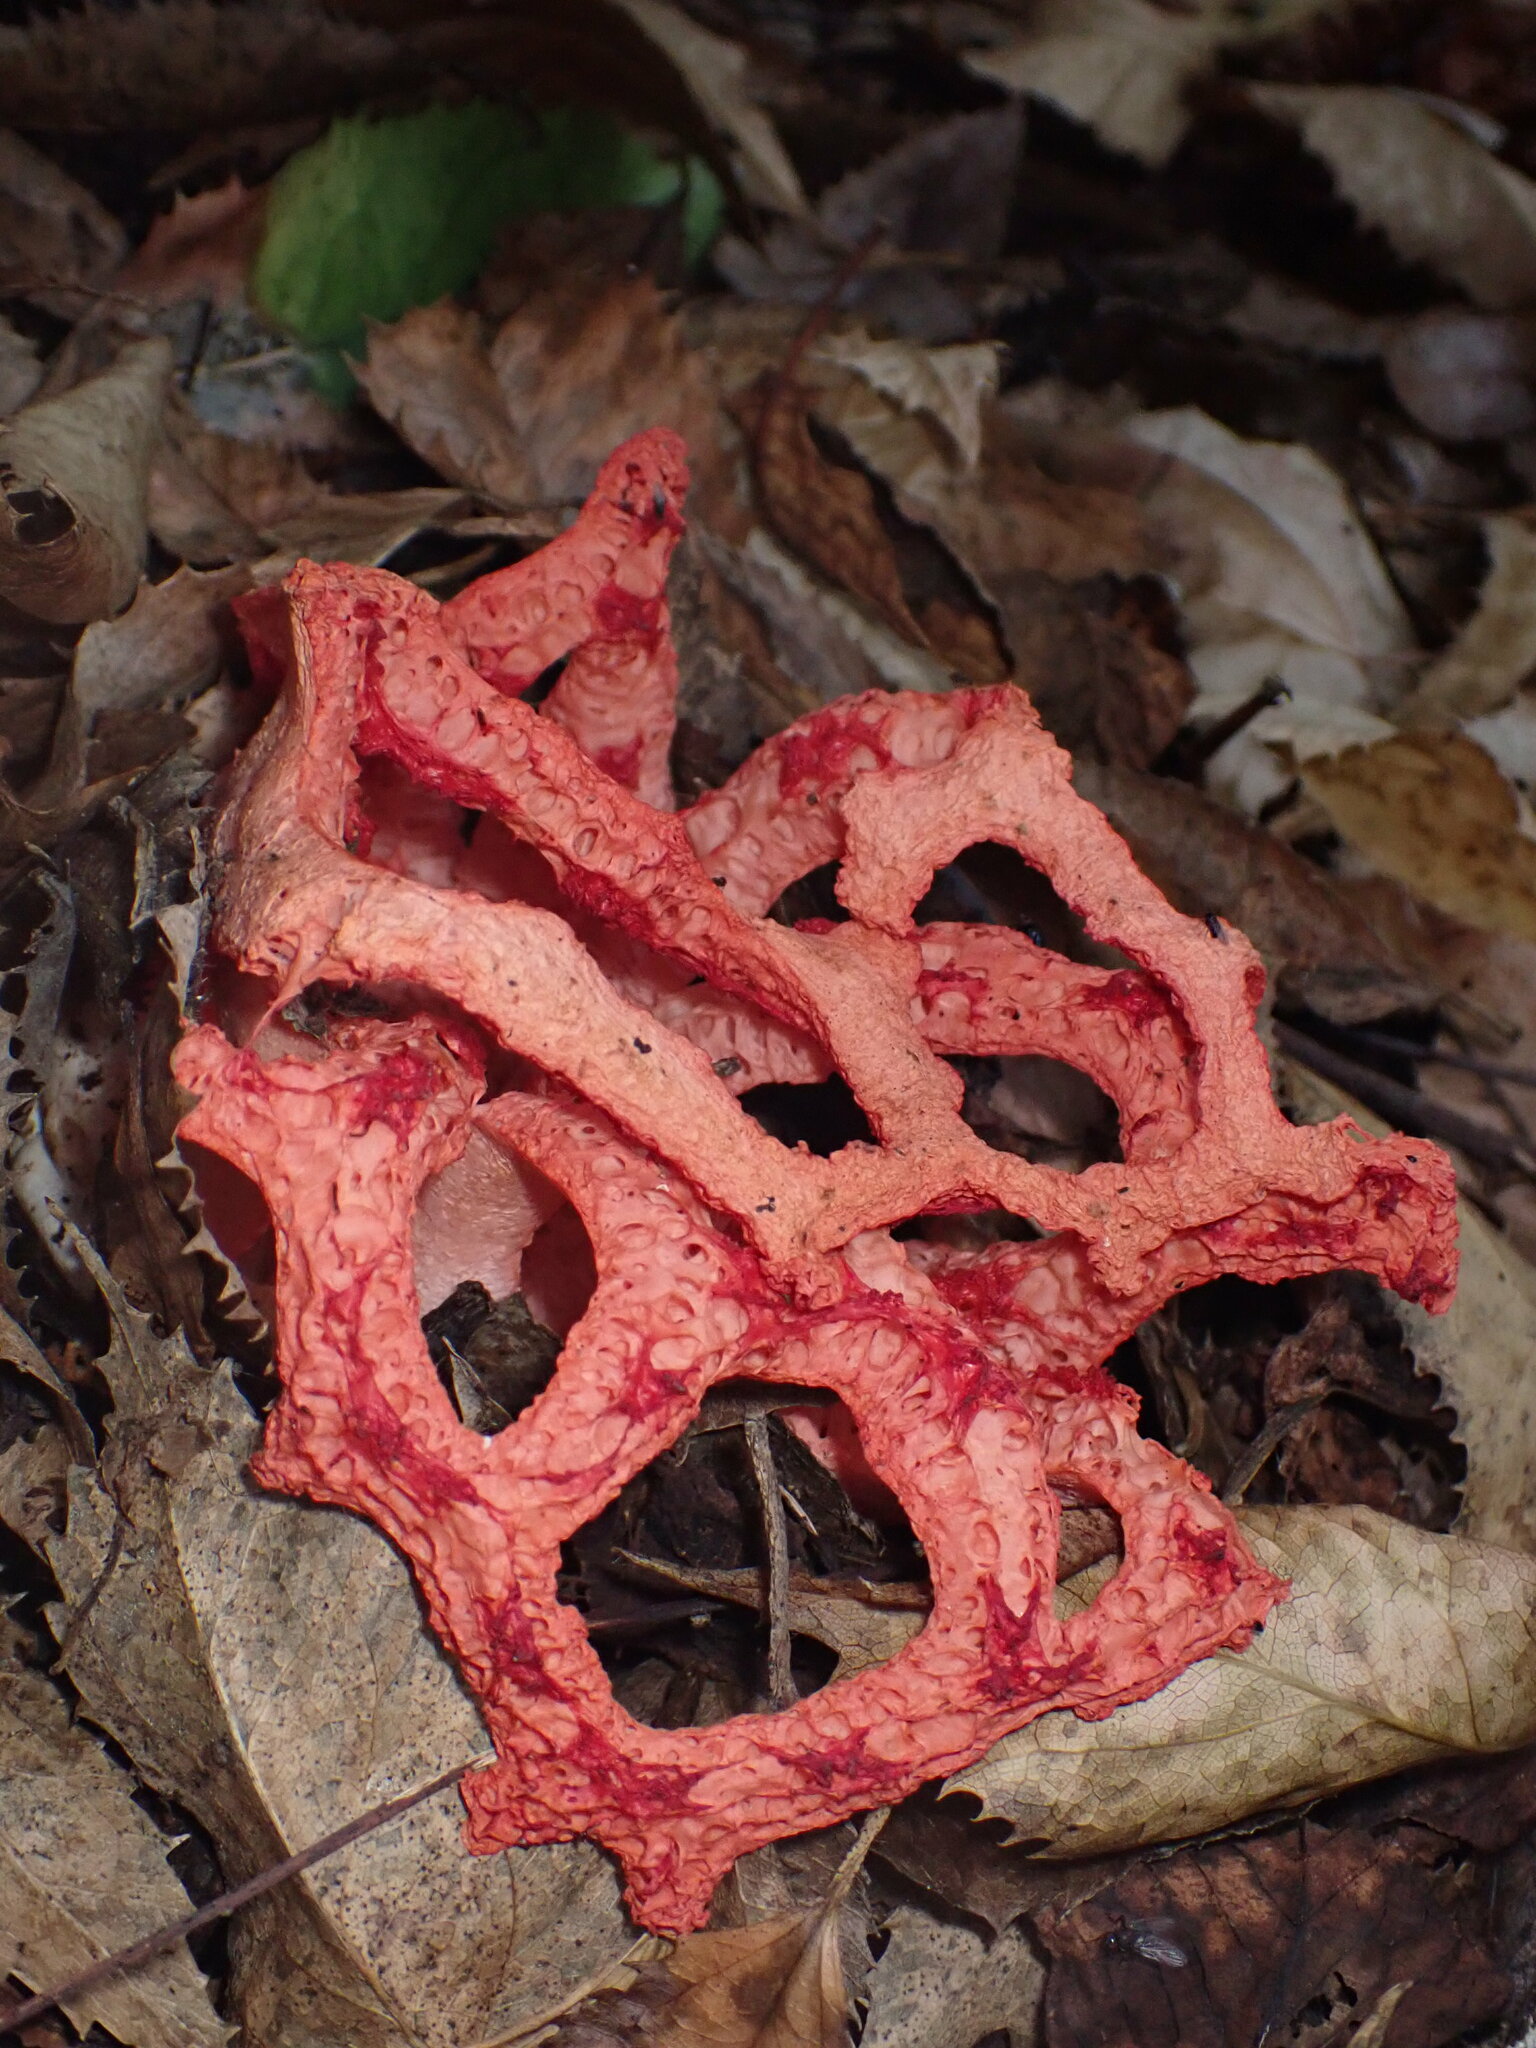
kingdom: Fungi
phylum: Basidiomycota
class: Agaricomycetes
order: Phallales
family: Phallaceae
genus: Clathrus
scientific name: Clathrus ruber
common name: Red cage
